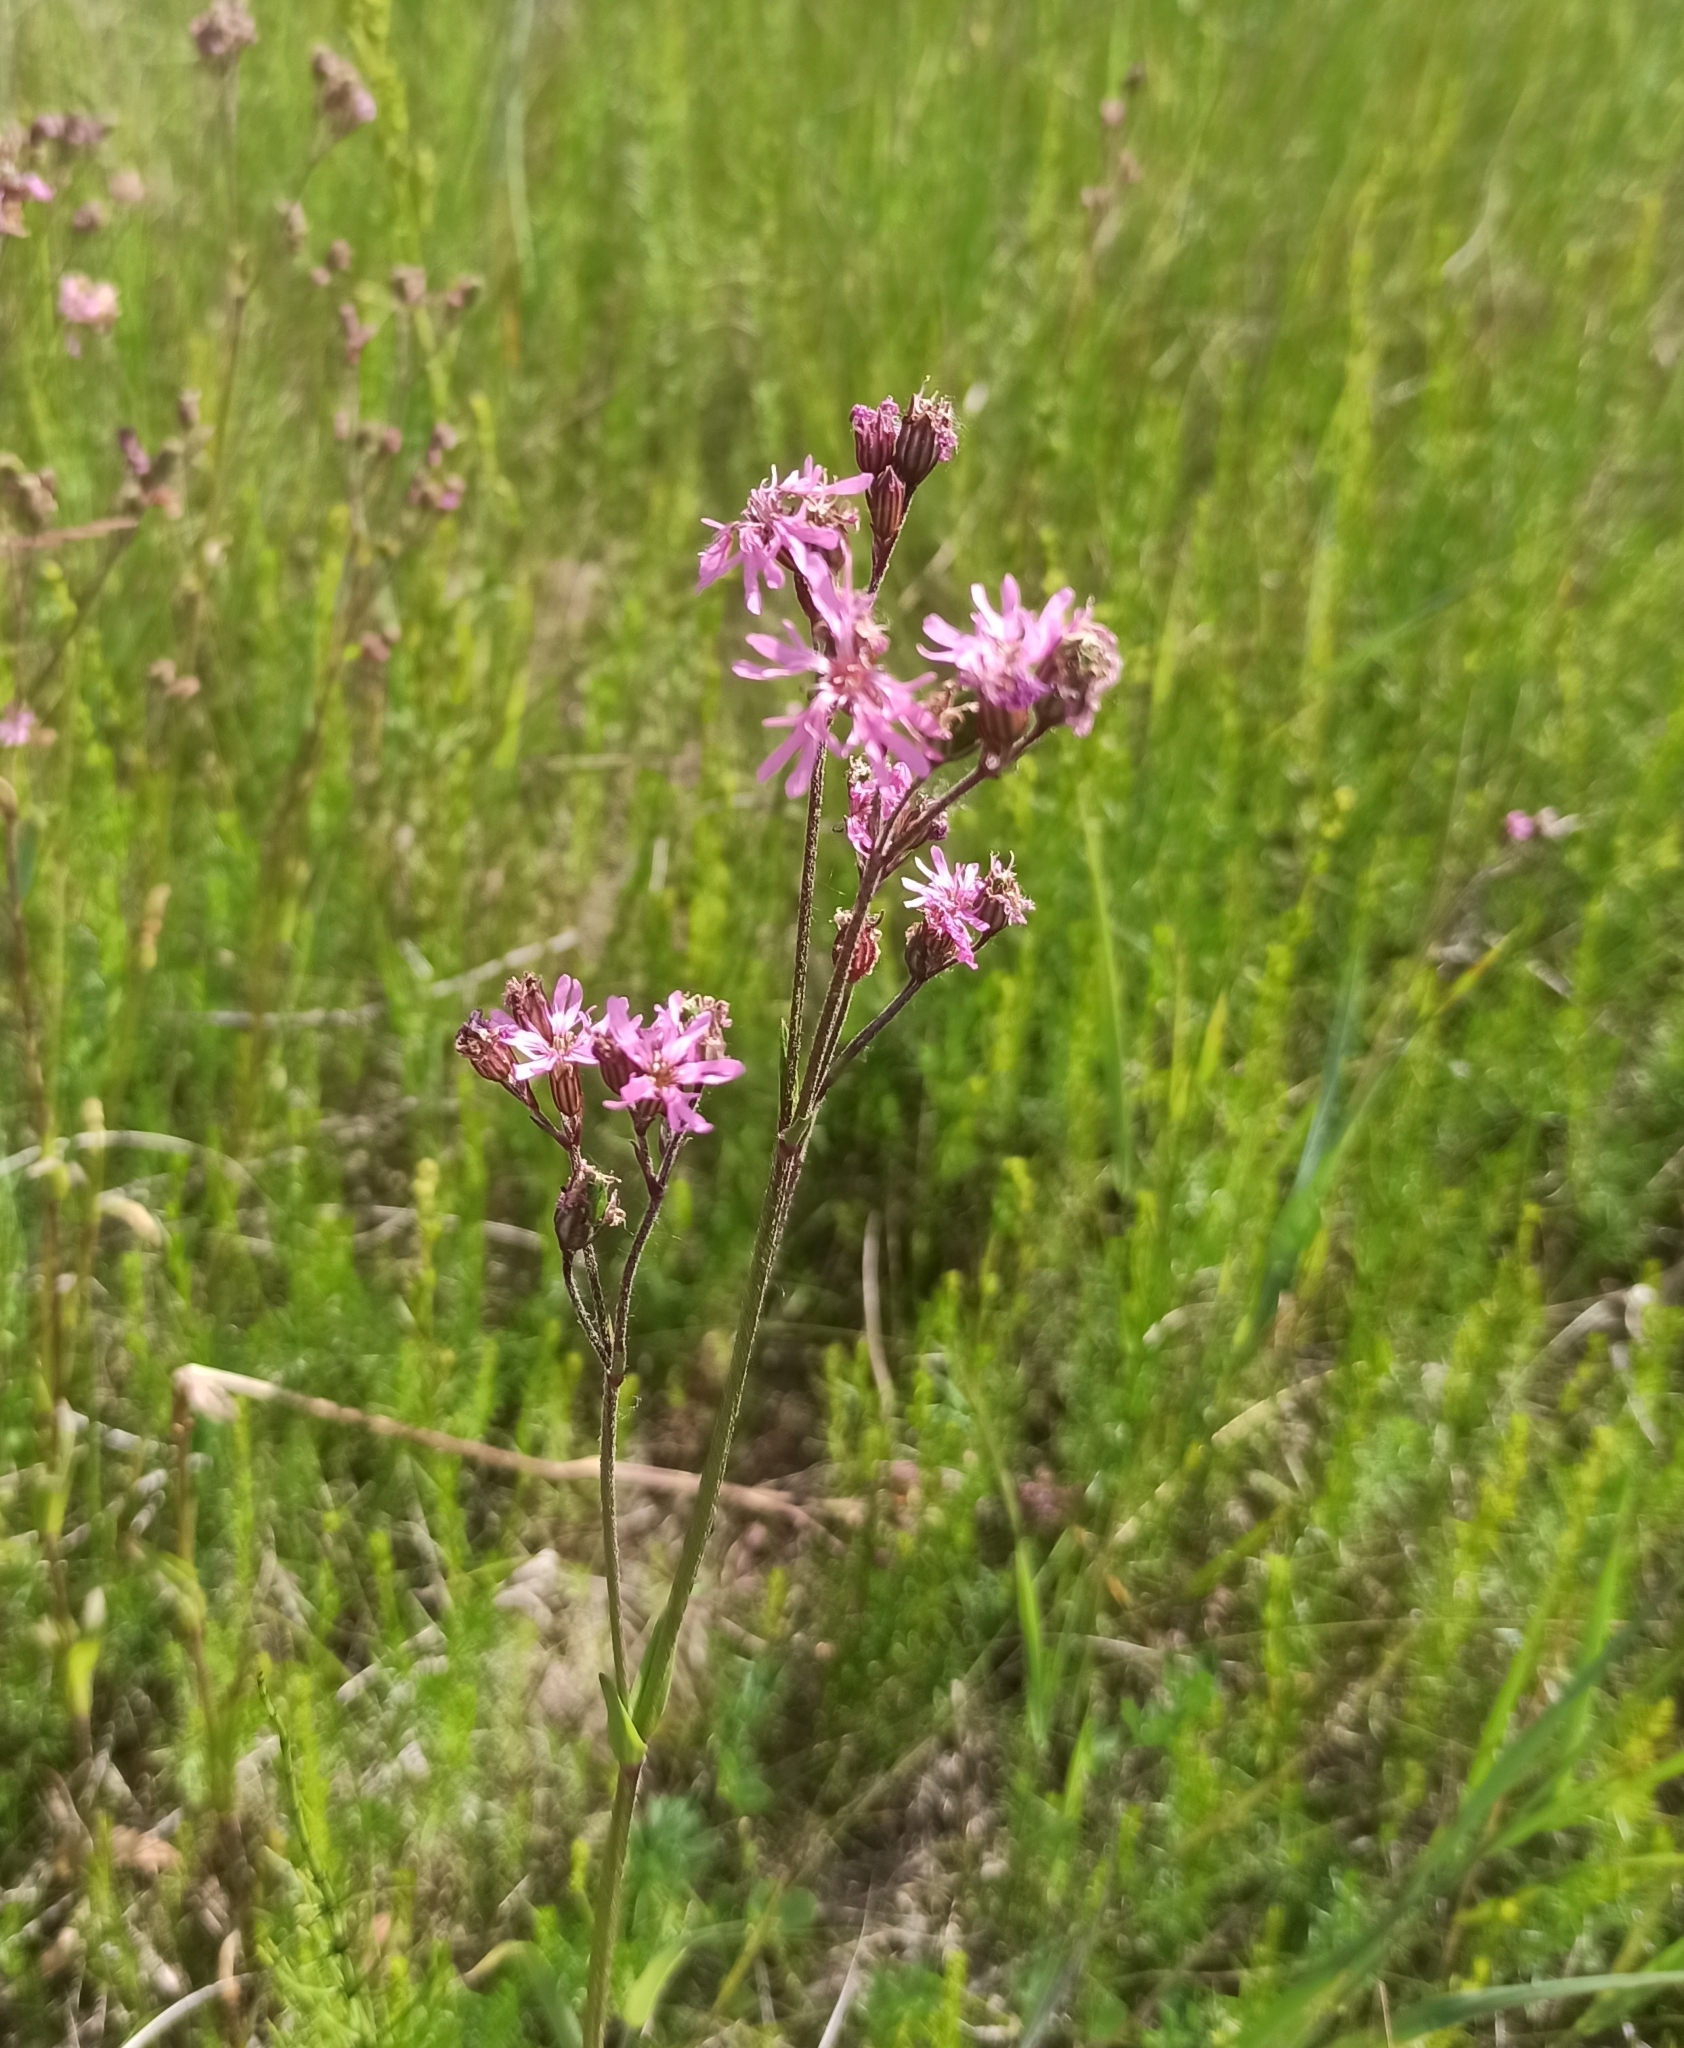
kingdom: Plantae
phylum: Tracheophyta
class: Magnoliopsida
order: Caryophyllales
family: Caryophyllaceae
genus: Silene
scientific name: Silene flos-cuculi
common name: Ragged-robin
